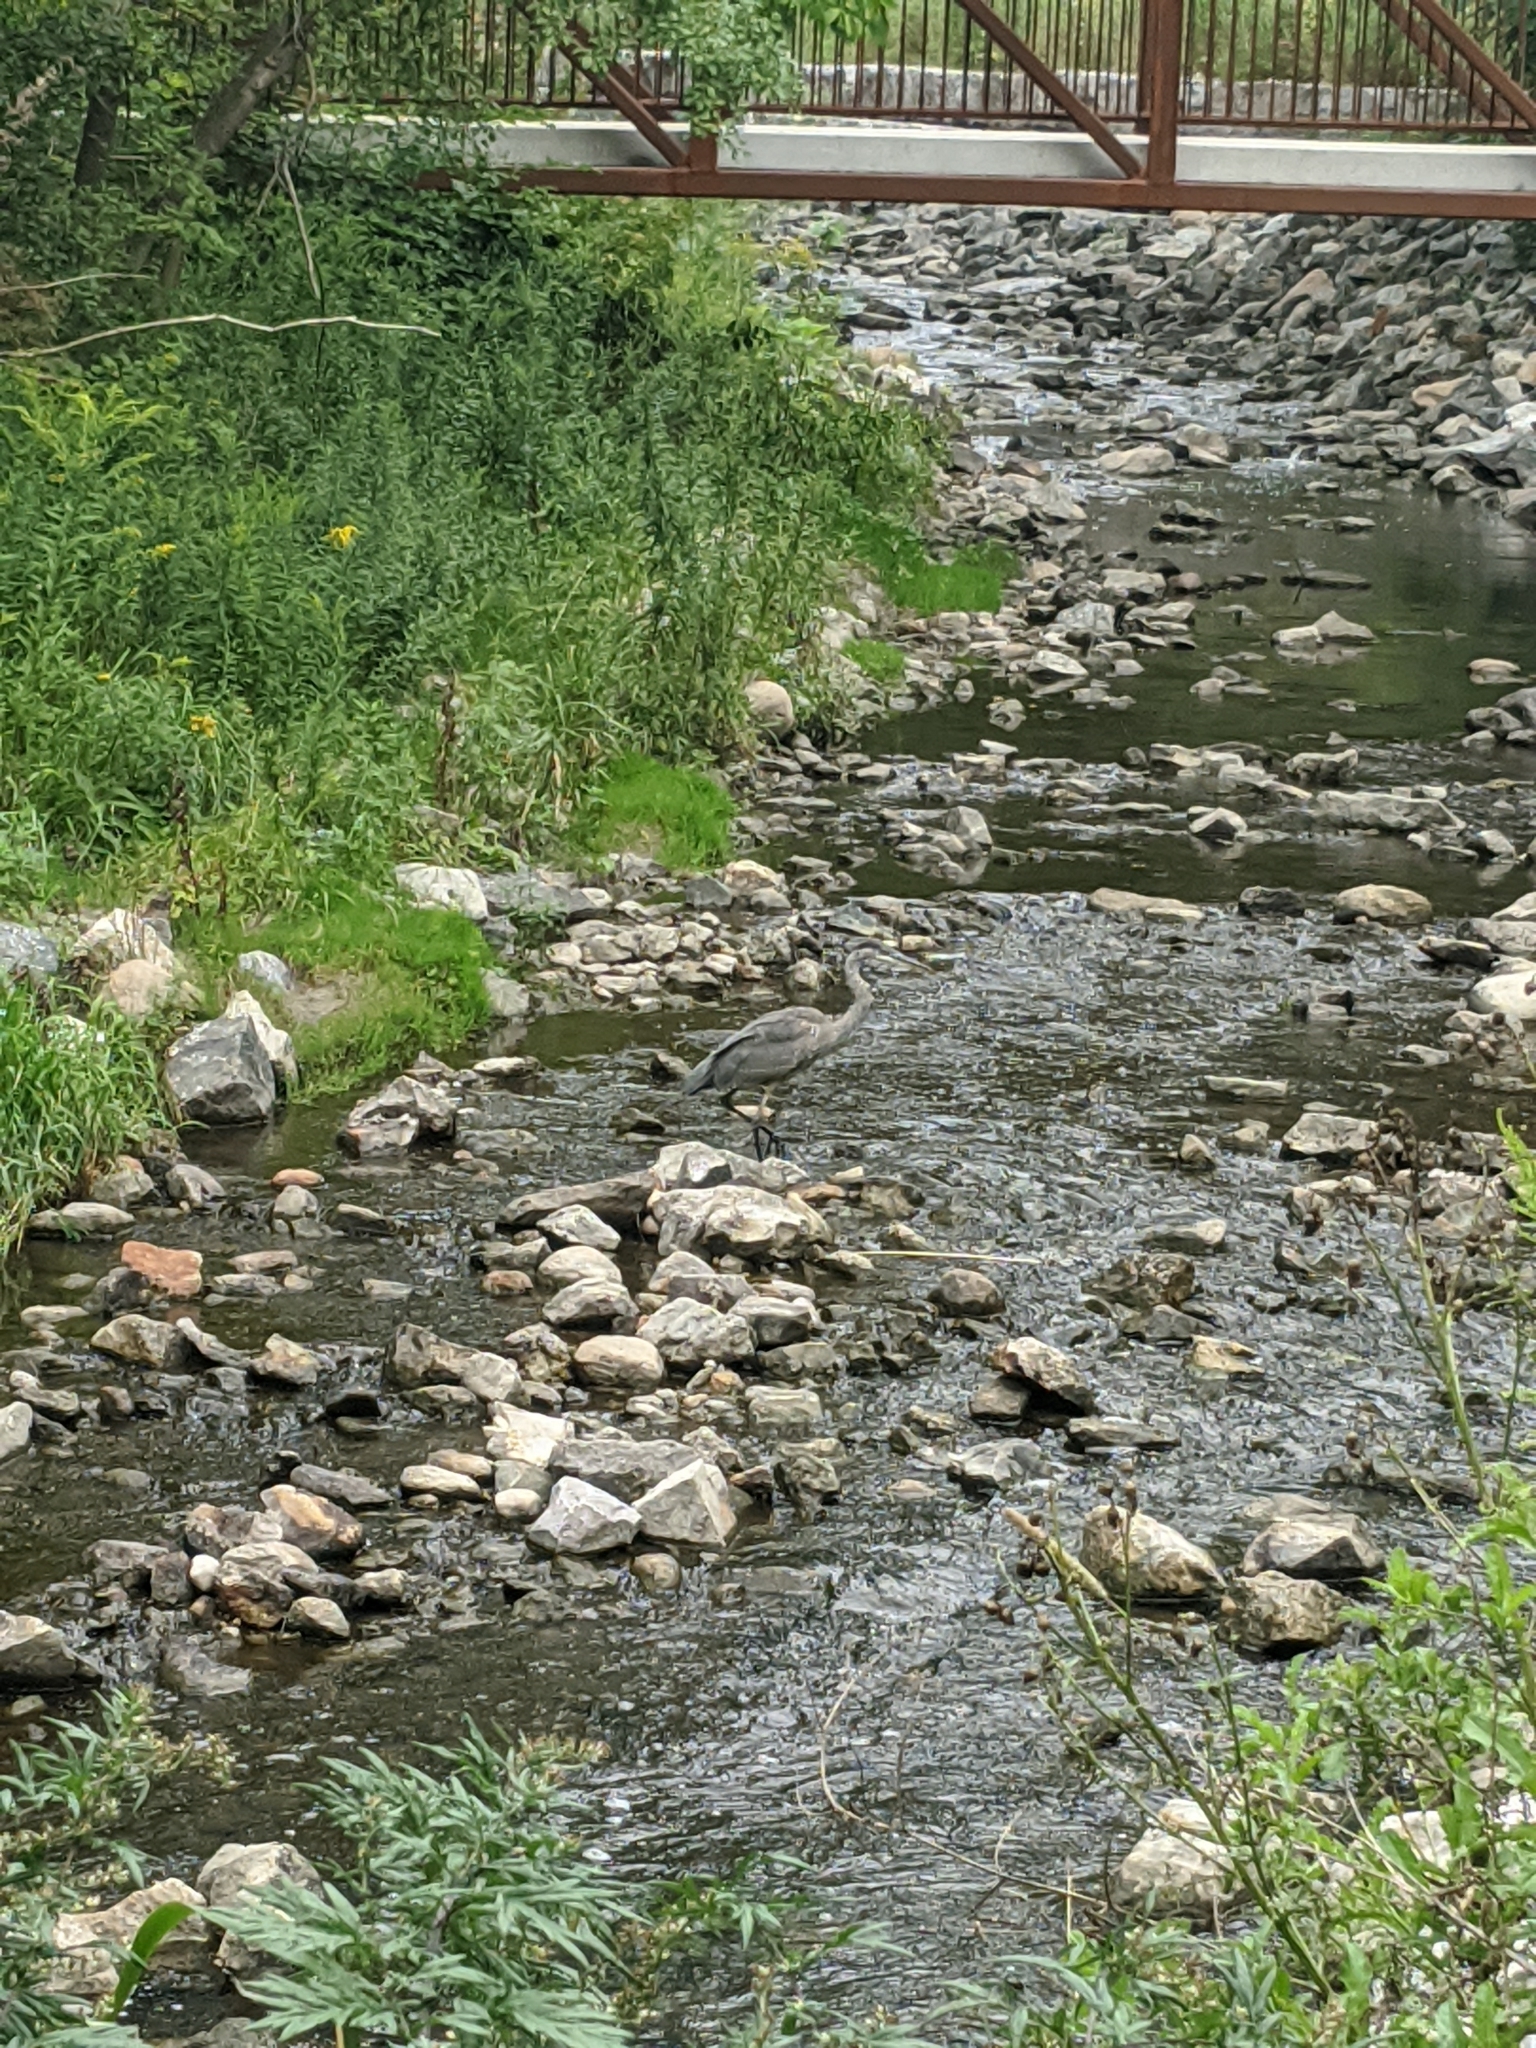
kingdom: Animalia
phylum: Chordata
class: Aves
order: Pelecaniformes
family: Ardeidae
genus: Ardea
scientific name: Ardea herodias
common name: Great blue heron
